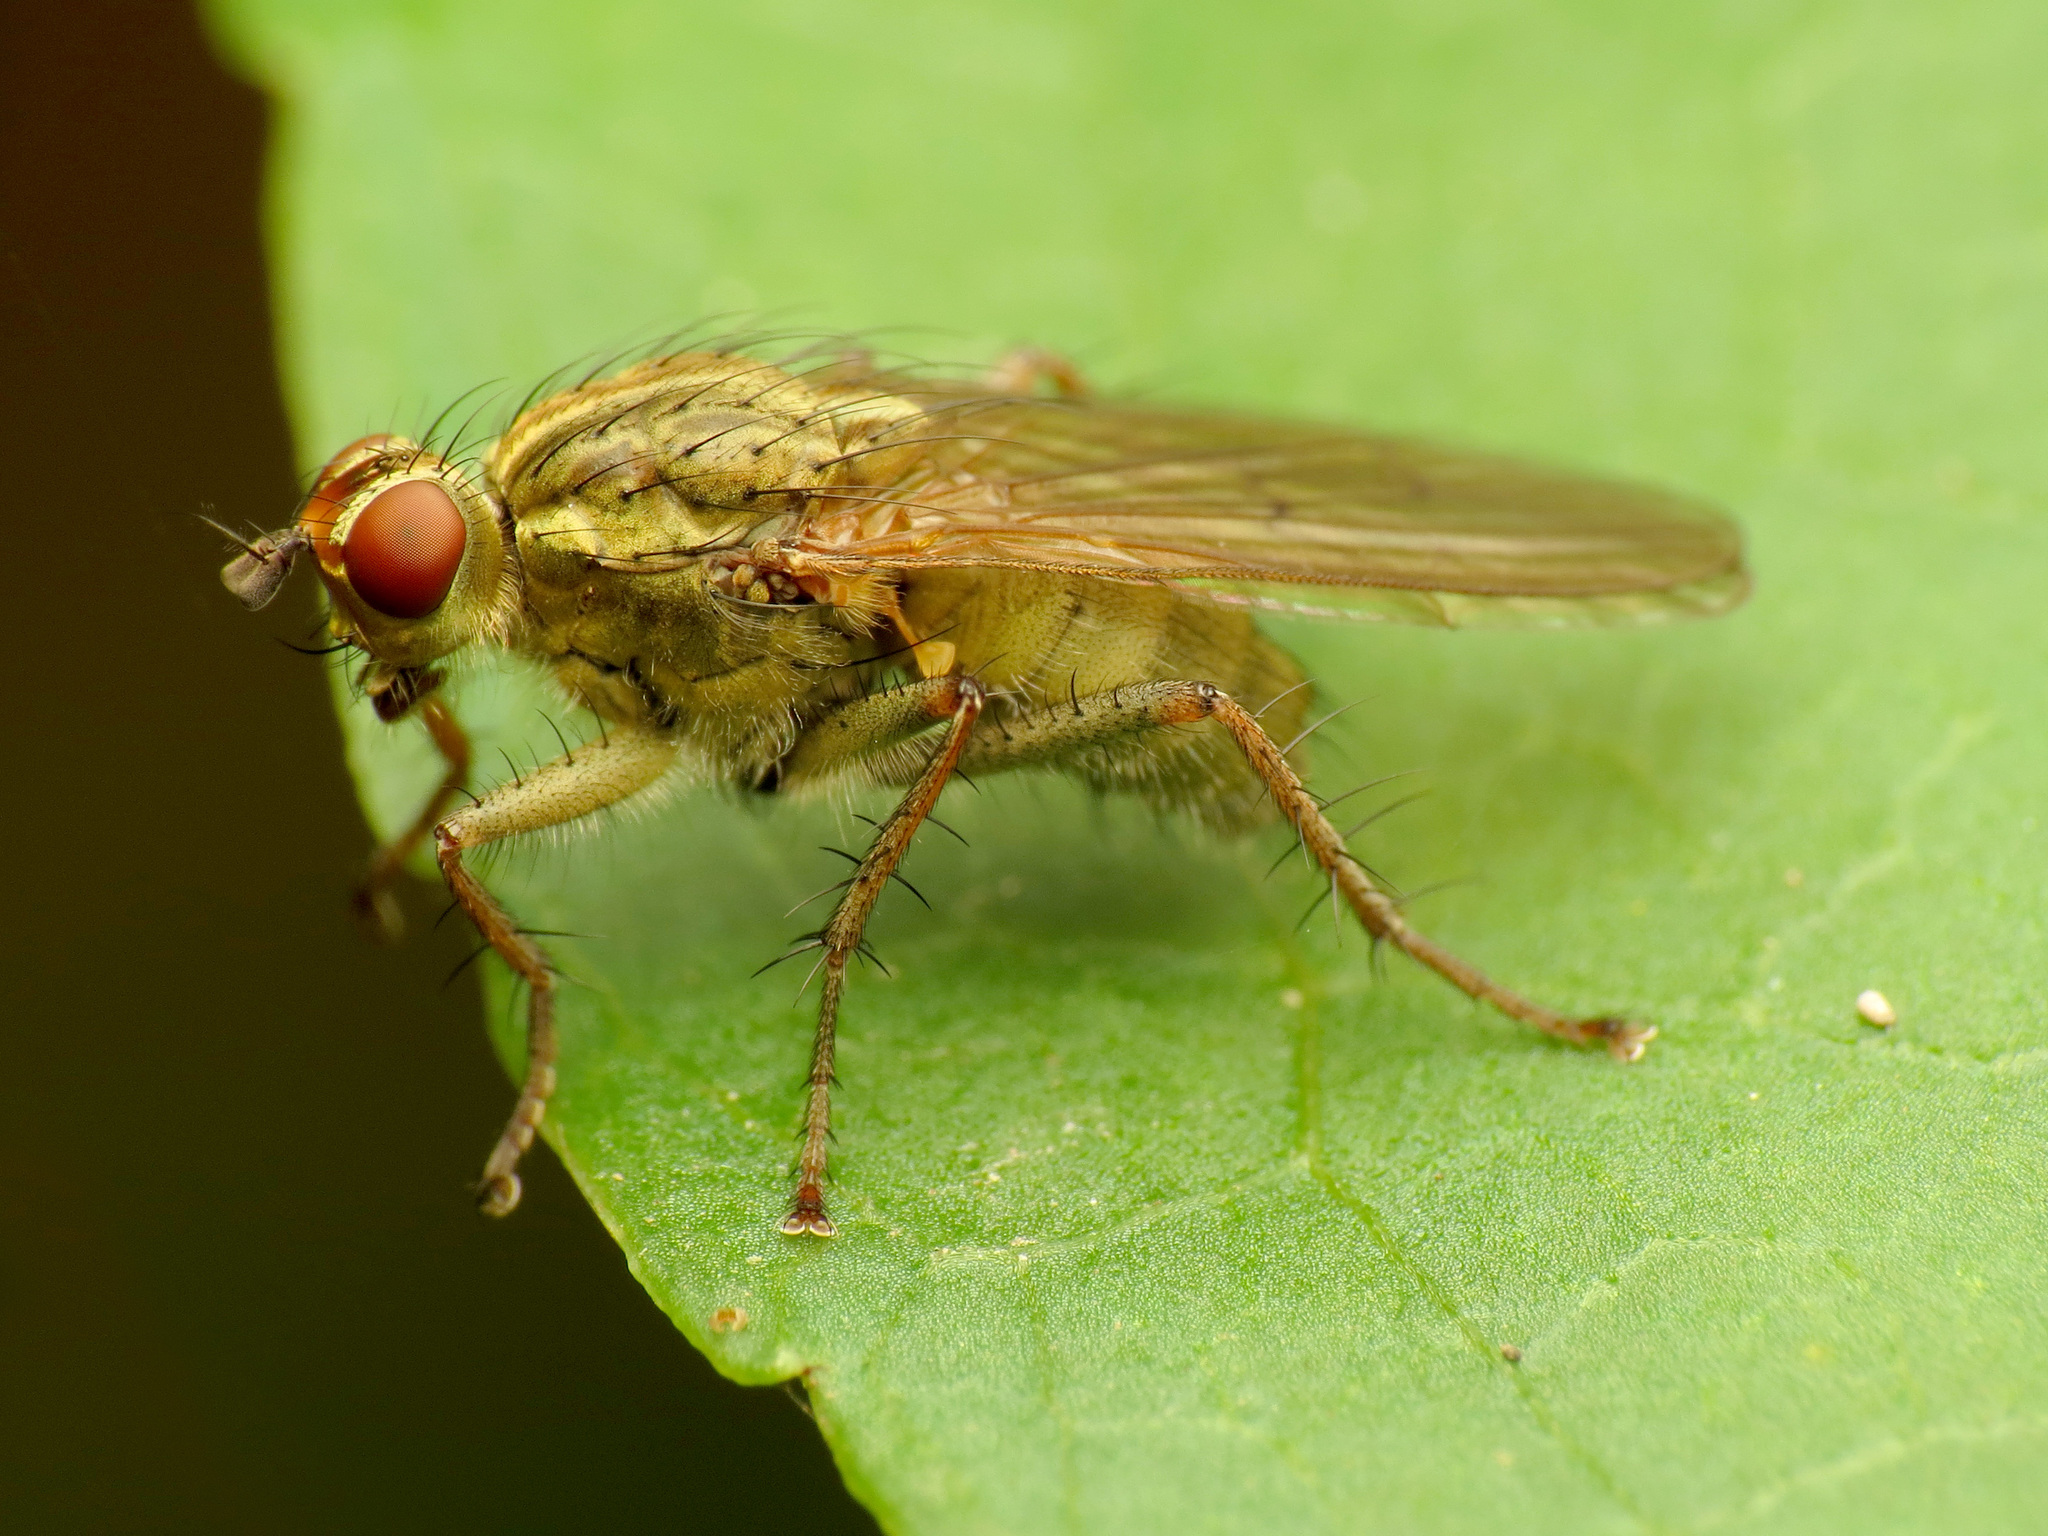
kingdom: Animalia
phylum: Arthropoda
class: Insecta
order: Diptera
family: Scathophagidae
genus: Scathophaga
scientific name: Scathophaga stercoraria
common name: Yellow dung fly
